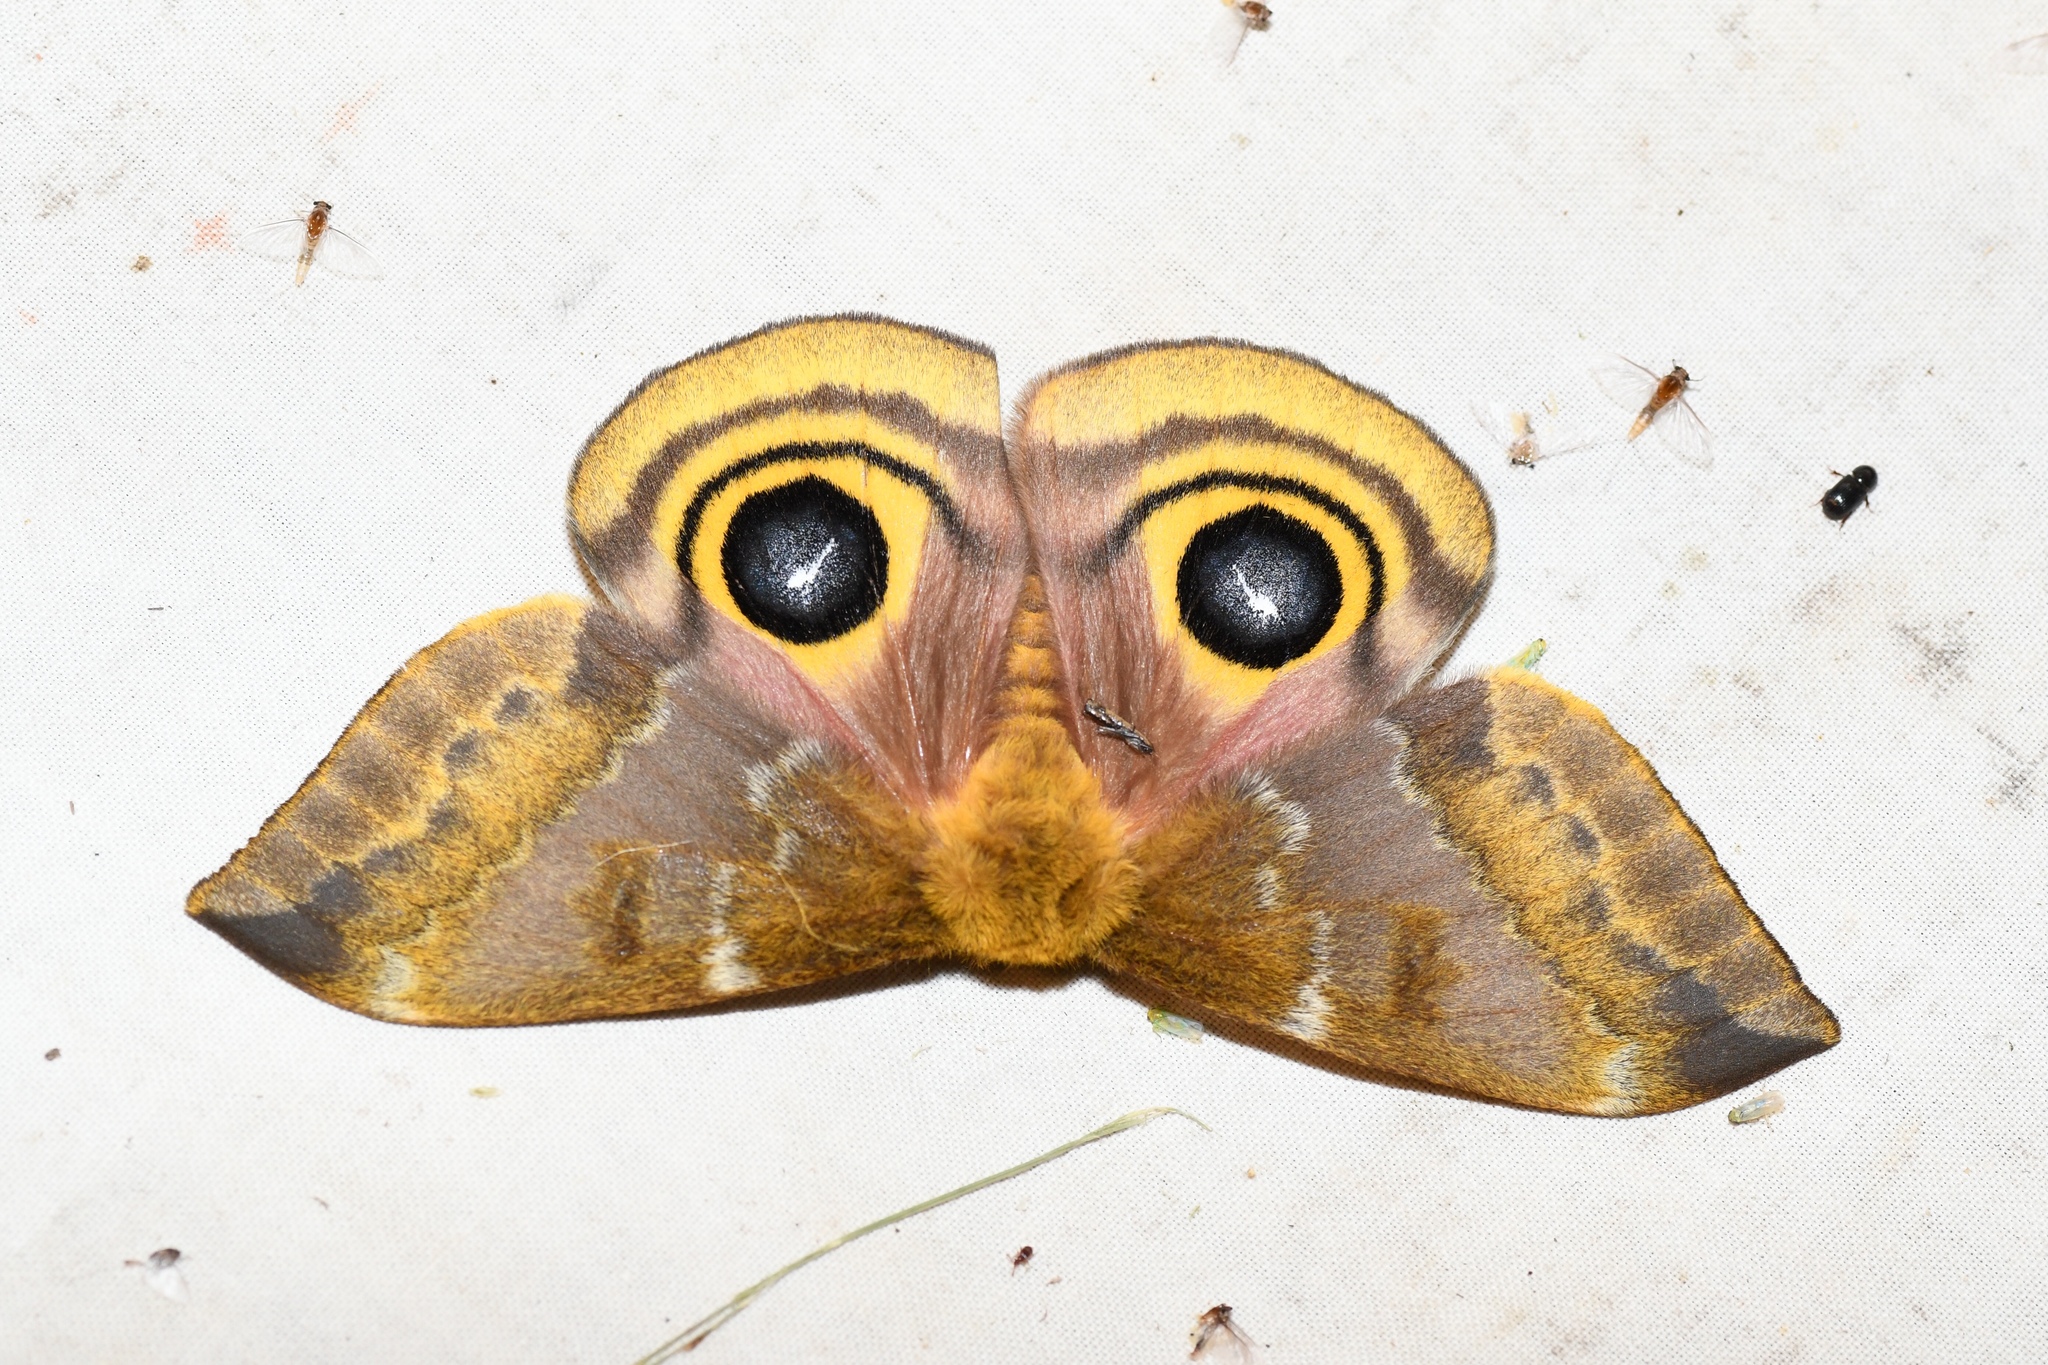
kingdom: Animalia
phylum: Arthropoda
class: Insecta
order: Lepidoptera
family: Saturniidae
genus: Automeris
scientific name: Automeris io
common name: Io moth
